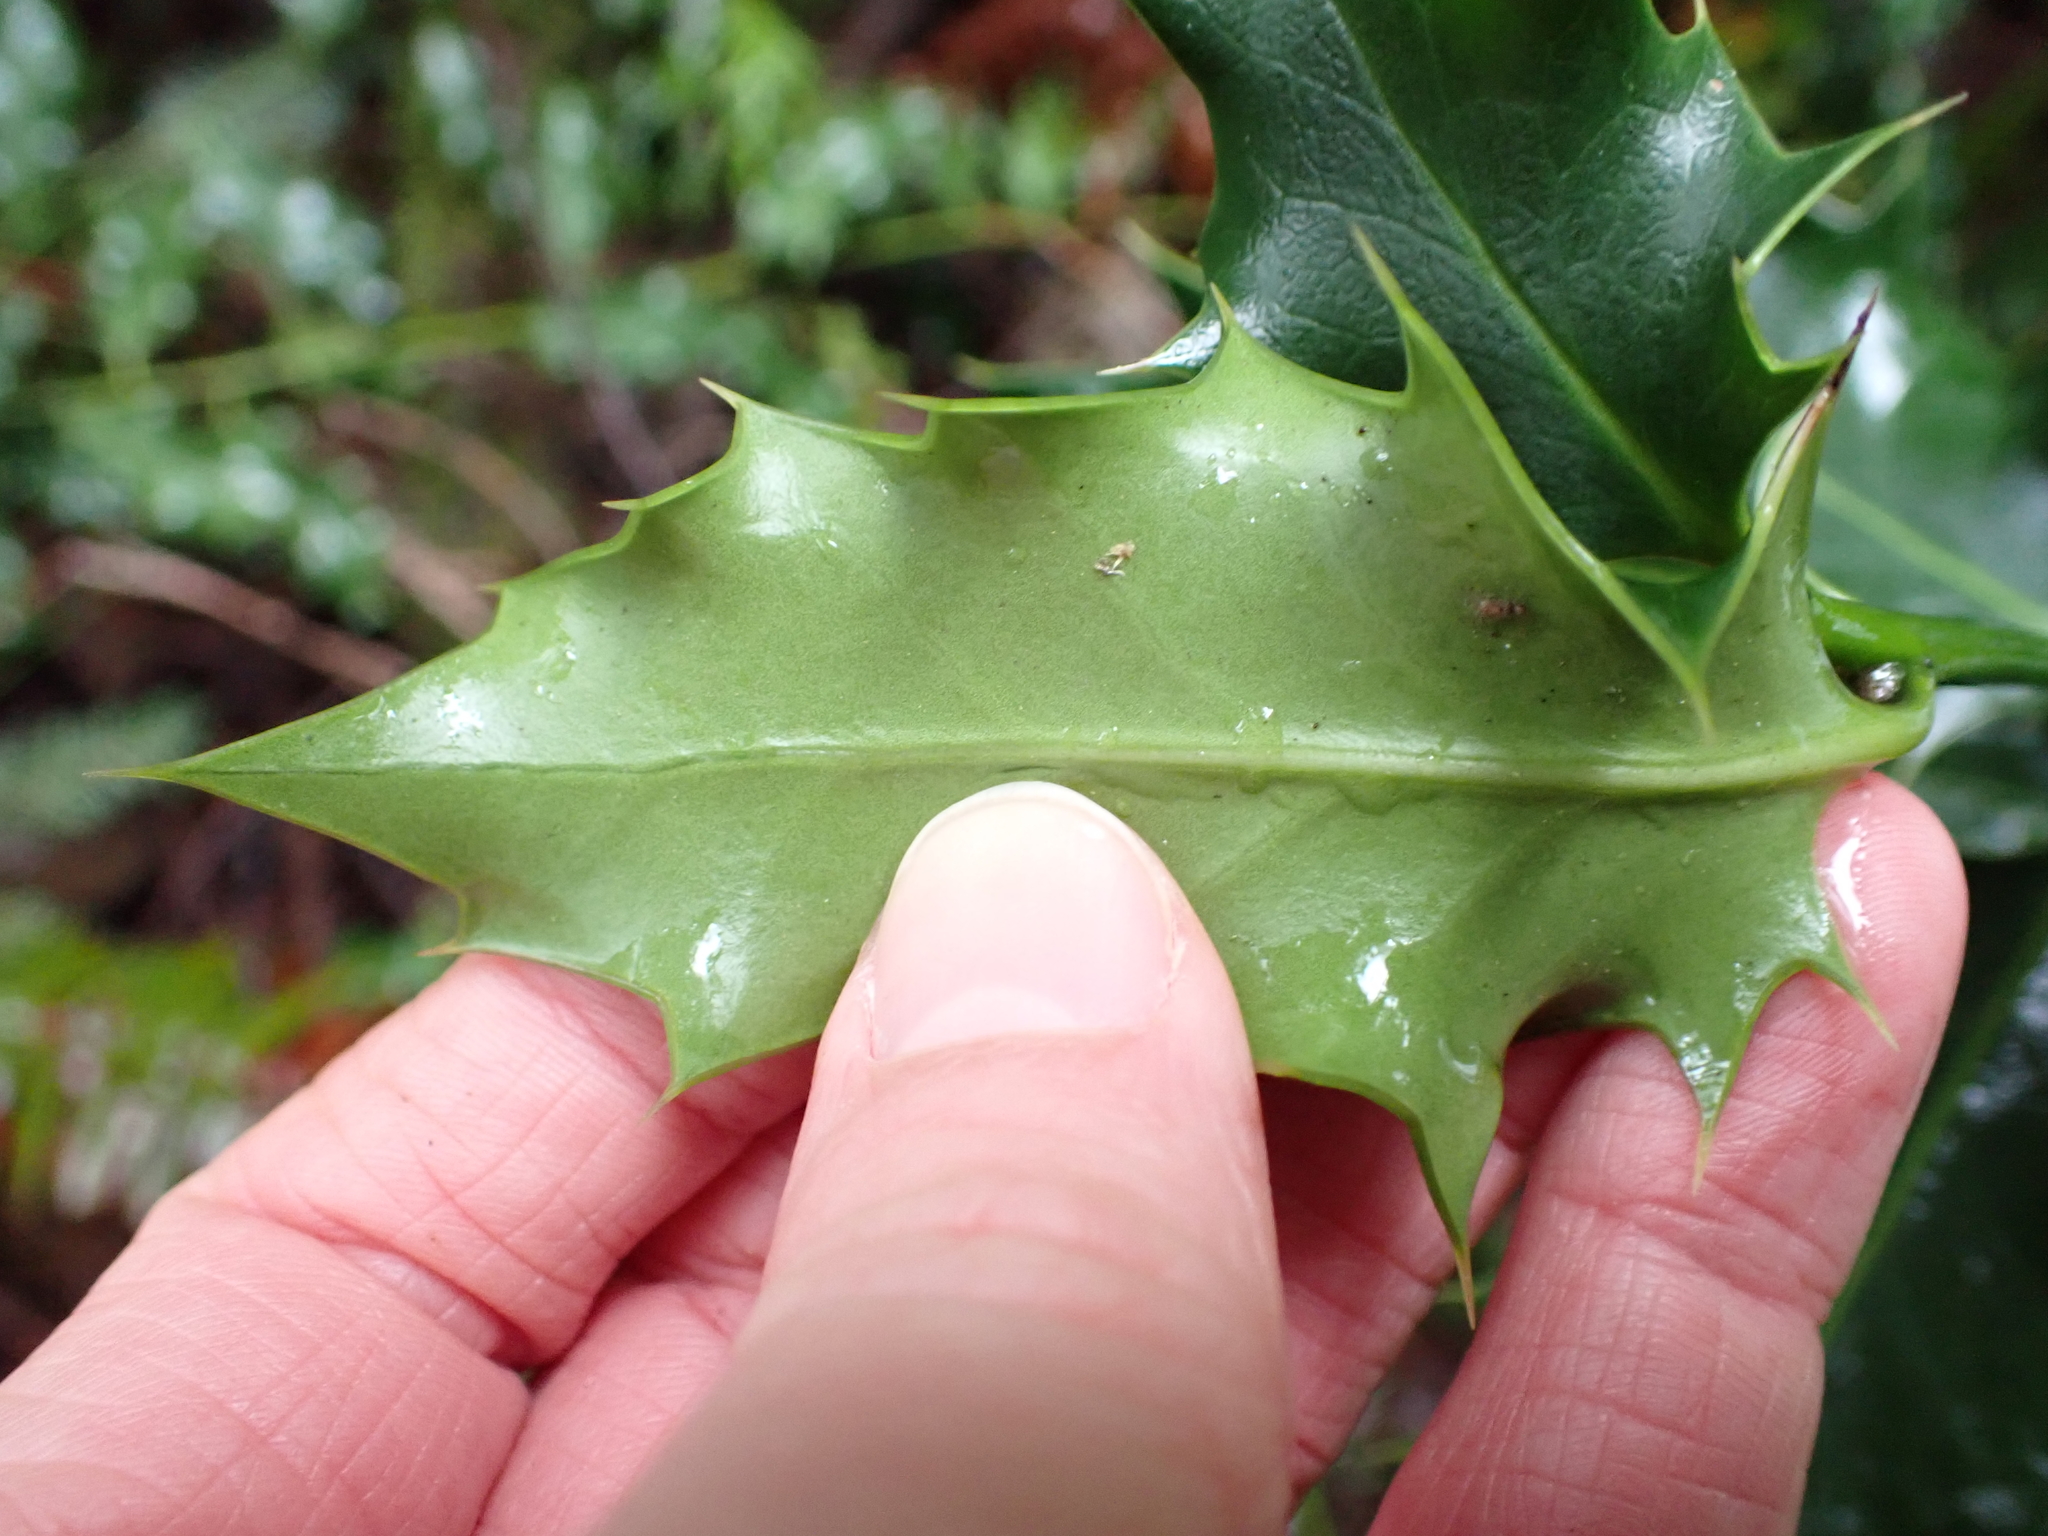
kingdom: Plantae
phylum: Tracheophyta
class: Magnoliopsida
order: Aquifoliales
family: Aquifoliaceae
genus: Ilex
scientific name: Ilex aquifolium
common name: English holly
